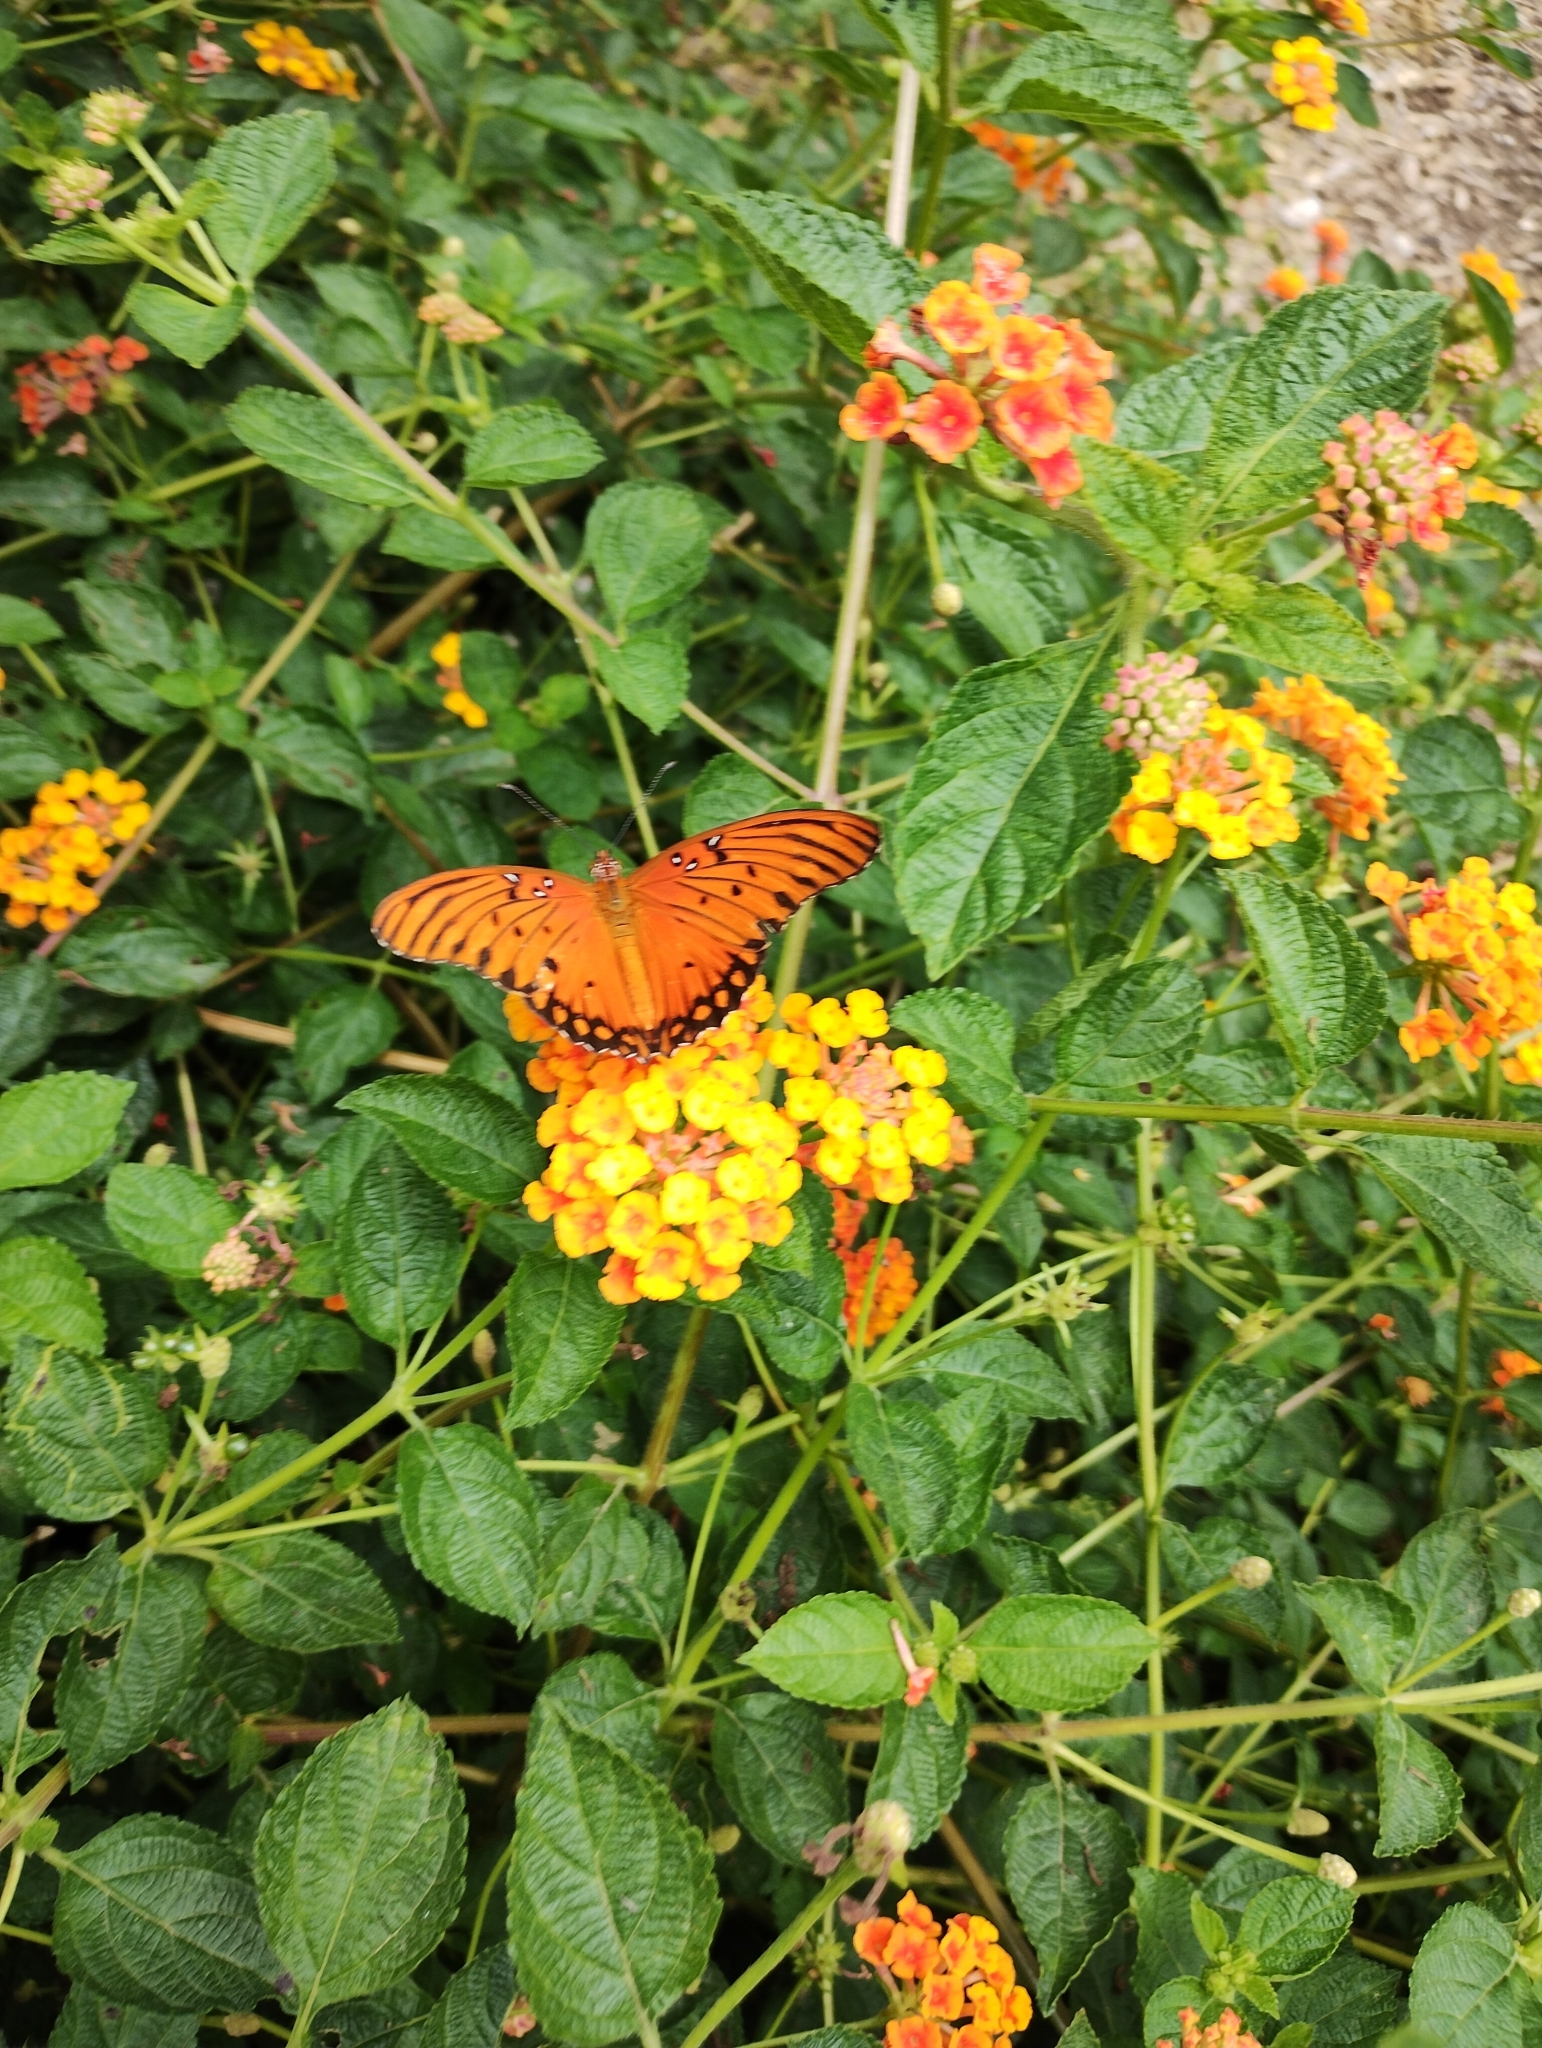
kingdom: Animalia
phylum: Arthropoda
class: Insecta
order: Lepidoptera
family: Nymphalidae
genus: Dione
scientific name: Dione vanillae
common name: Gulf fritillary
